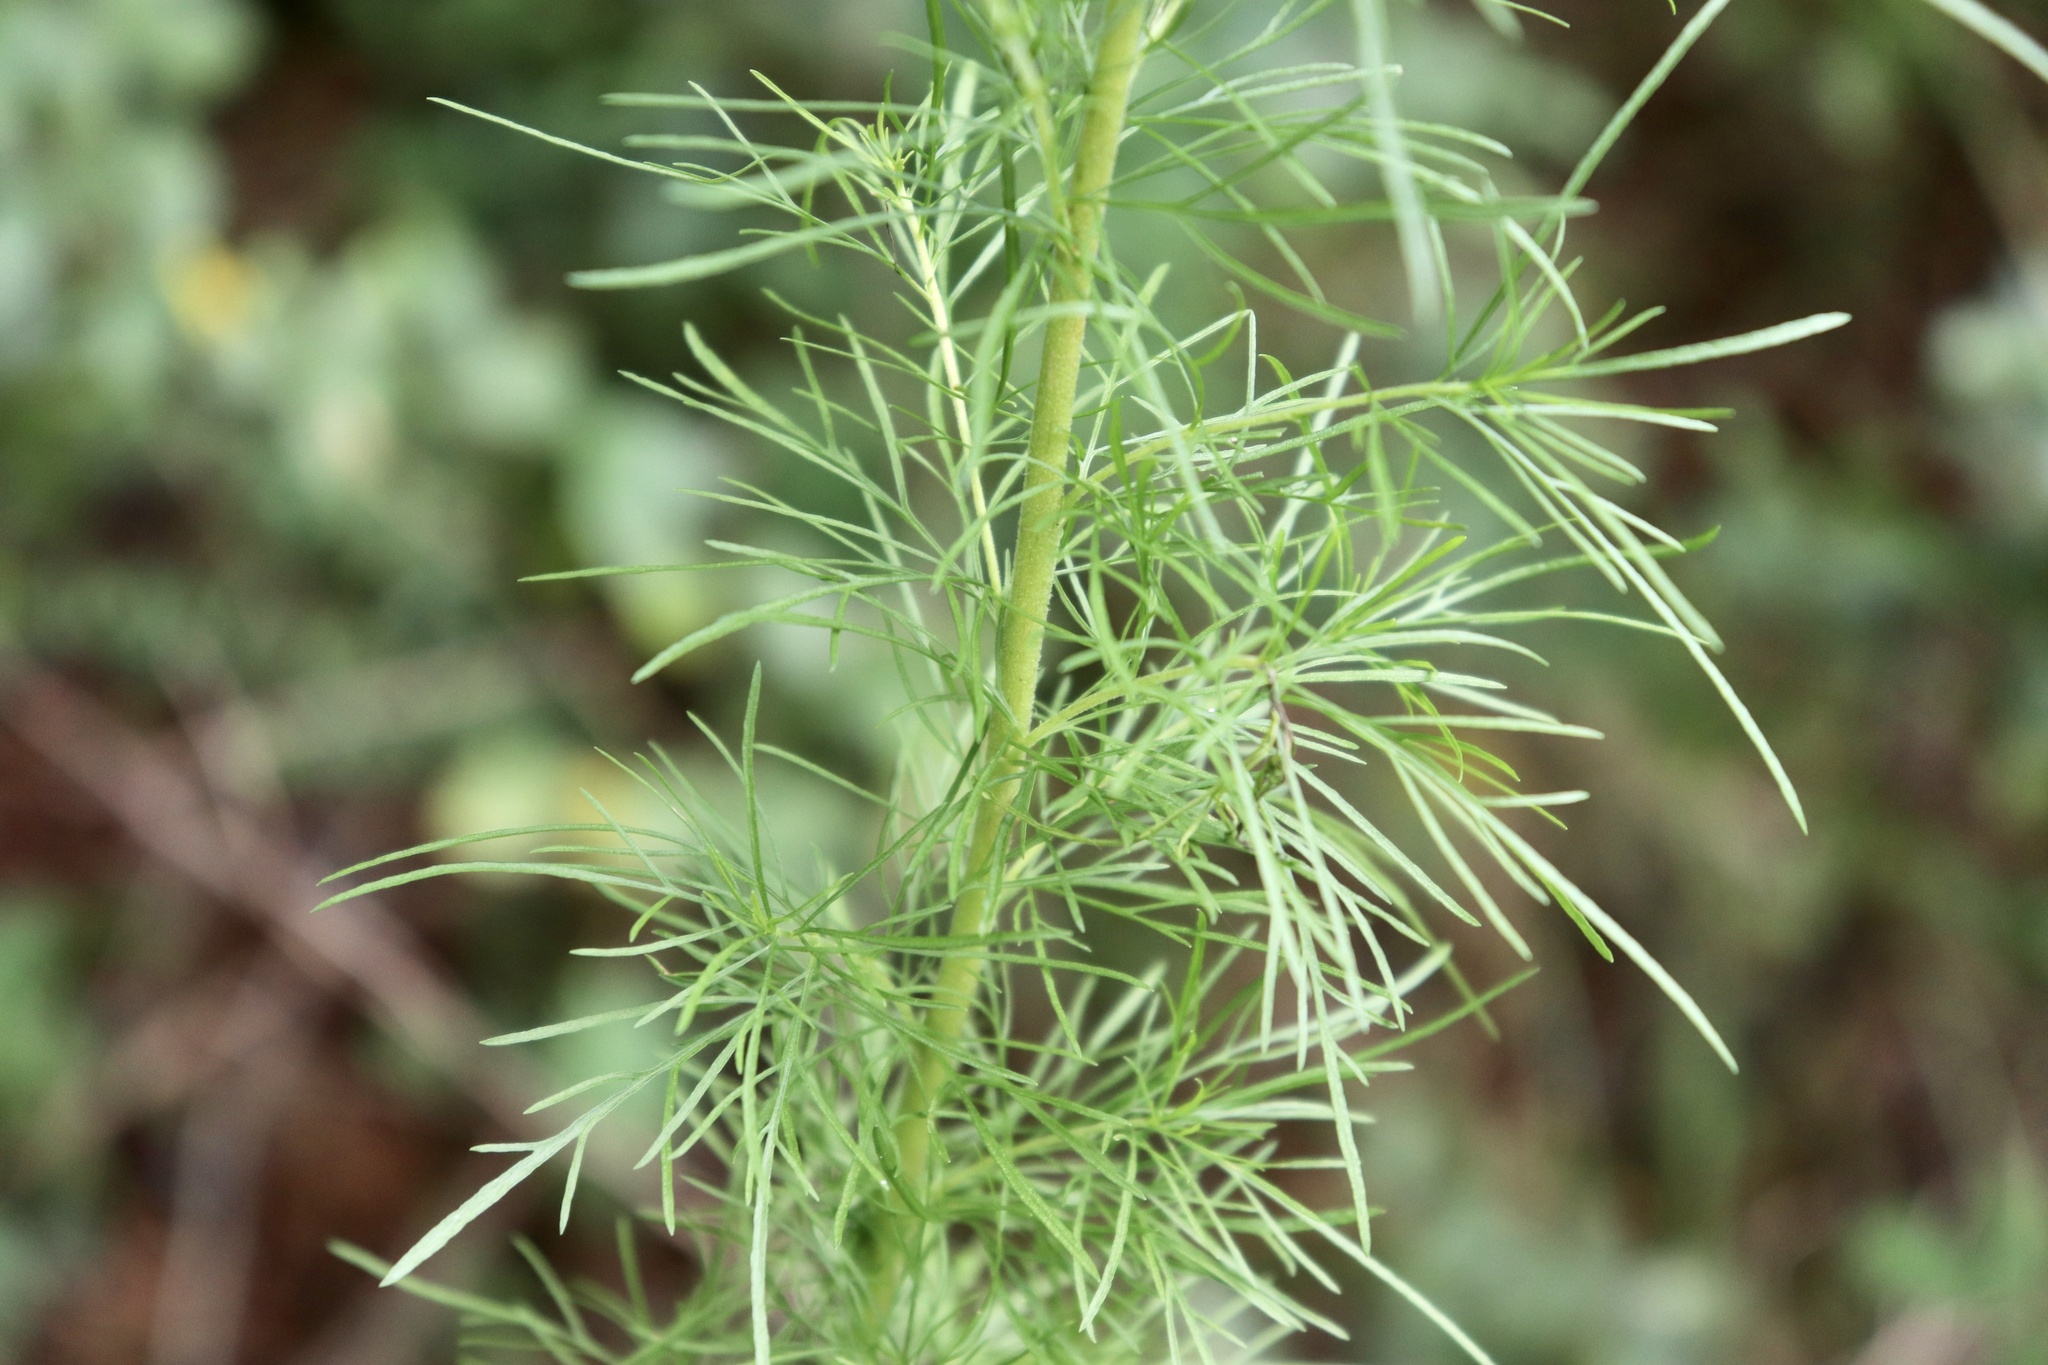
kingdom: Plantae
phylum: Tracheophyta
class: Magnoliopsida
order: Asterales
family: Asteraceae
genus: Eupatorium
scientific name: Eupatorium capillifolium
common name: Dog-fennel
